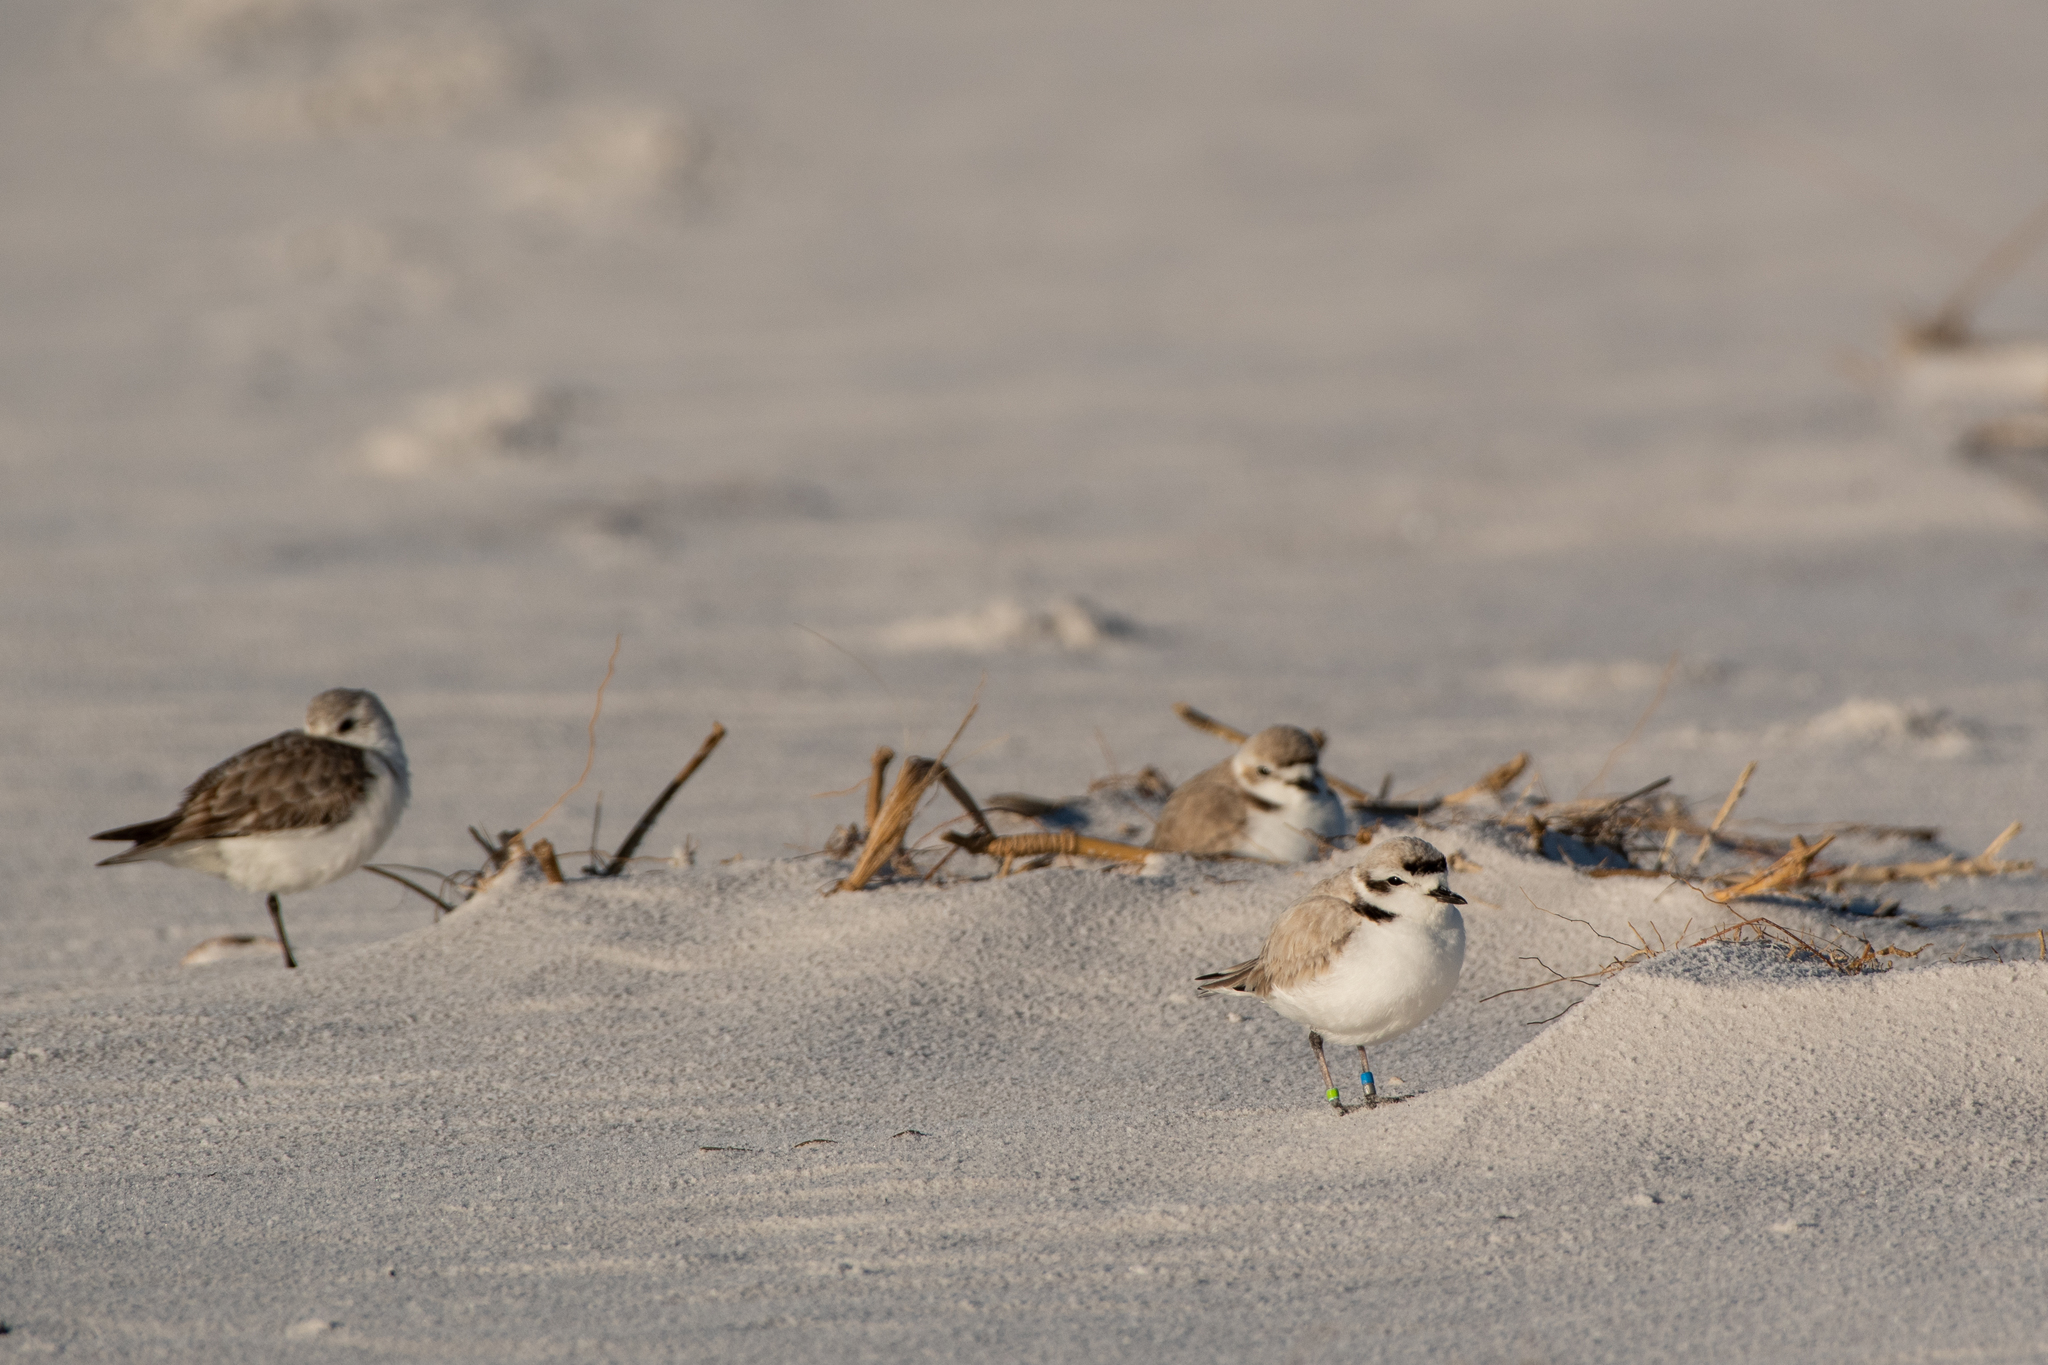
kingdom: Animalia
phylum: Chordata
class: Aves
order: Charadriiformes
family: Charadriidae
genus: Anarhynchus
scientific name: Anarhynchus
